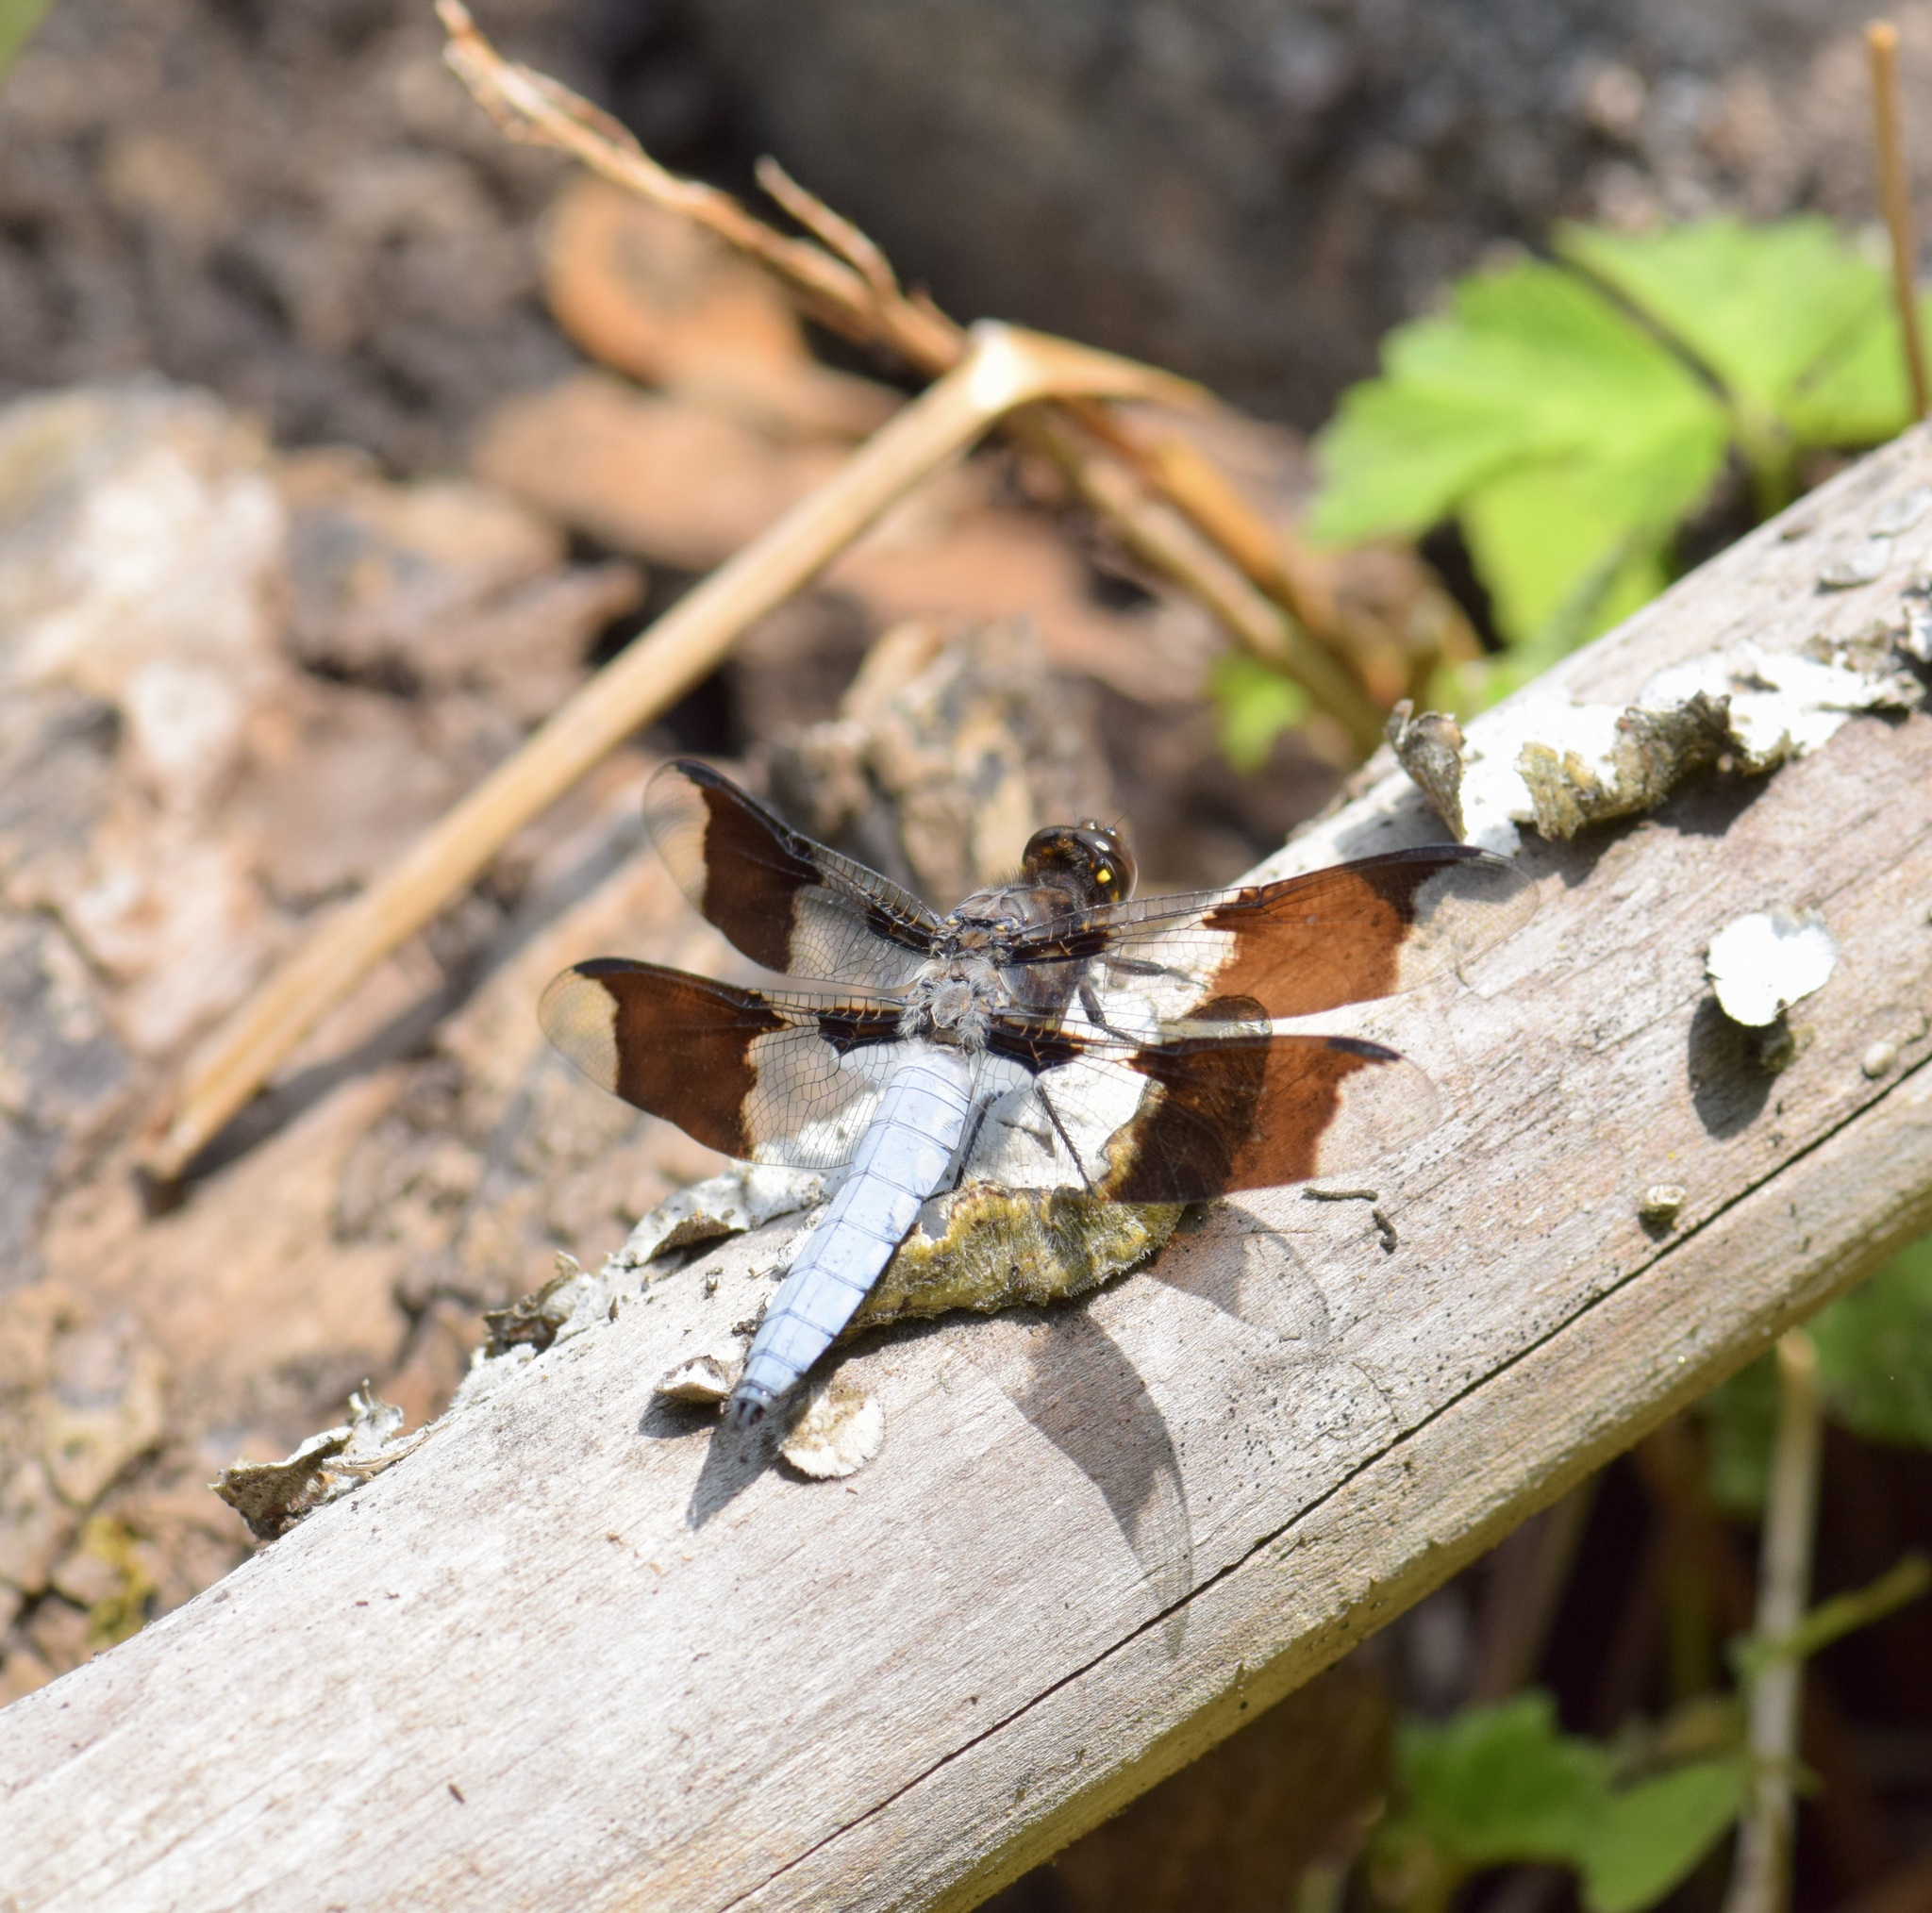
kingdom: Animalia
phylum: Arthropoda
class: Insecta
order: Odonata
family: Libellulidae
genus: Plathemis
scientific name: Plathemis lydia
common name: Common whitetail
